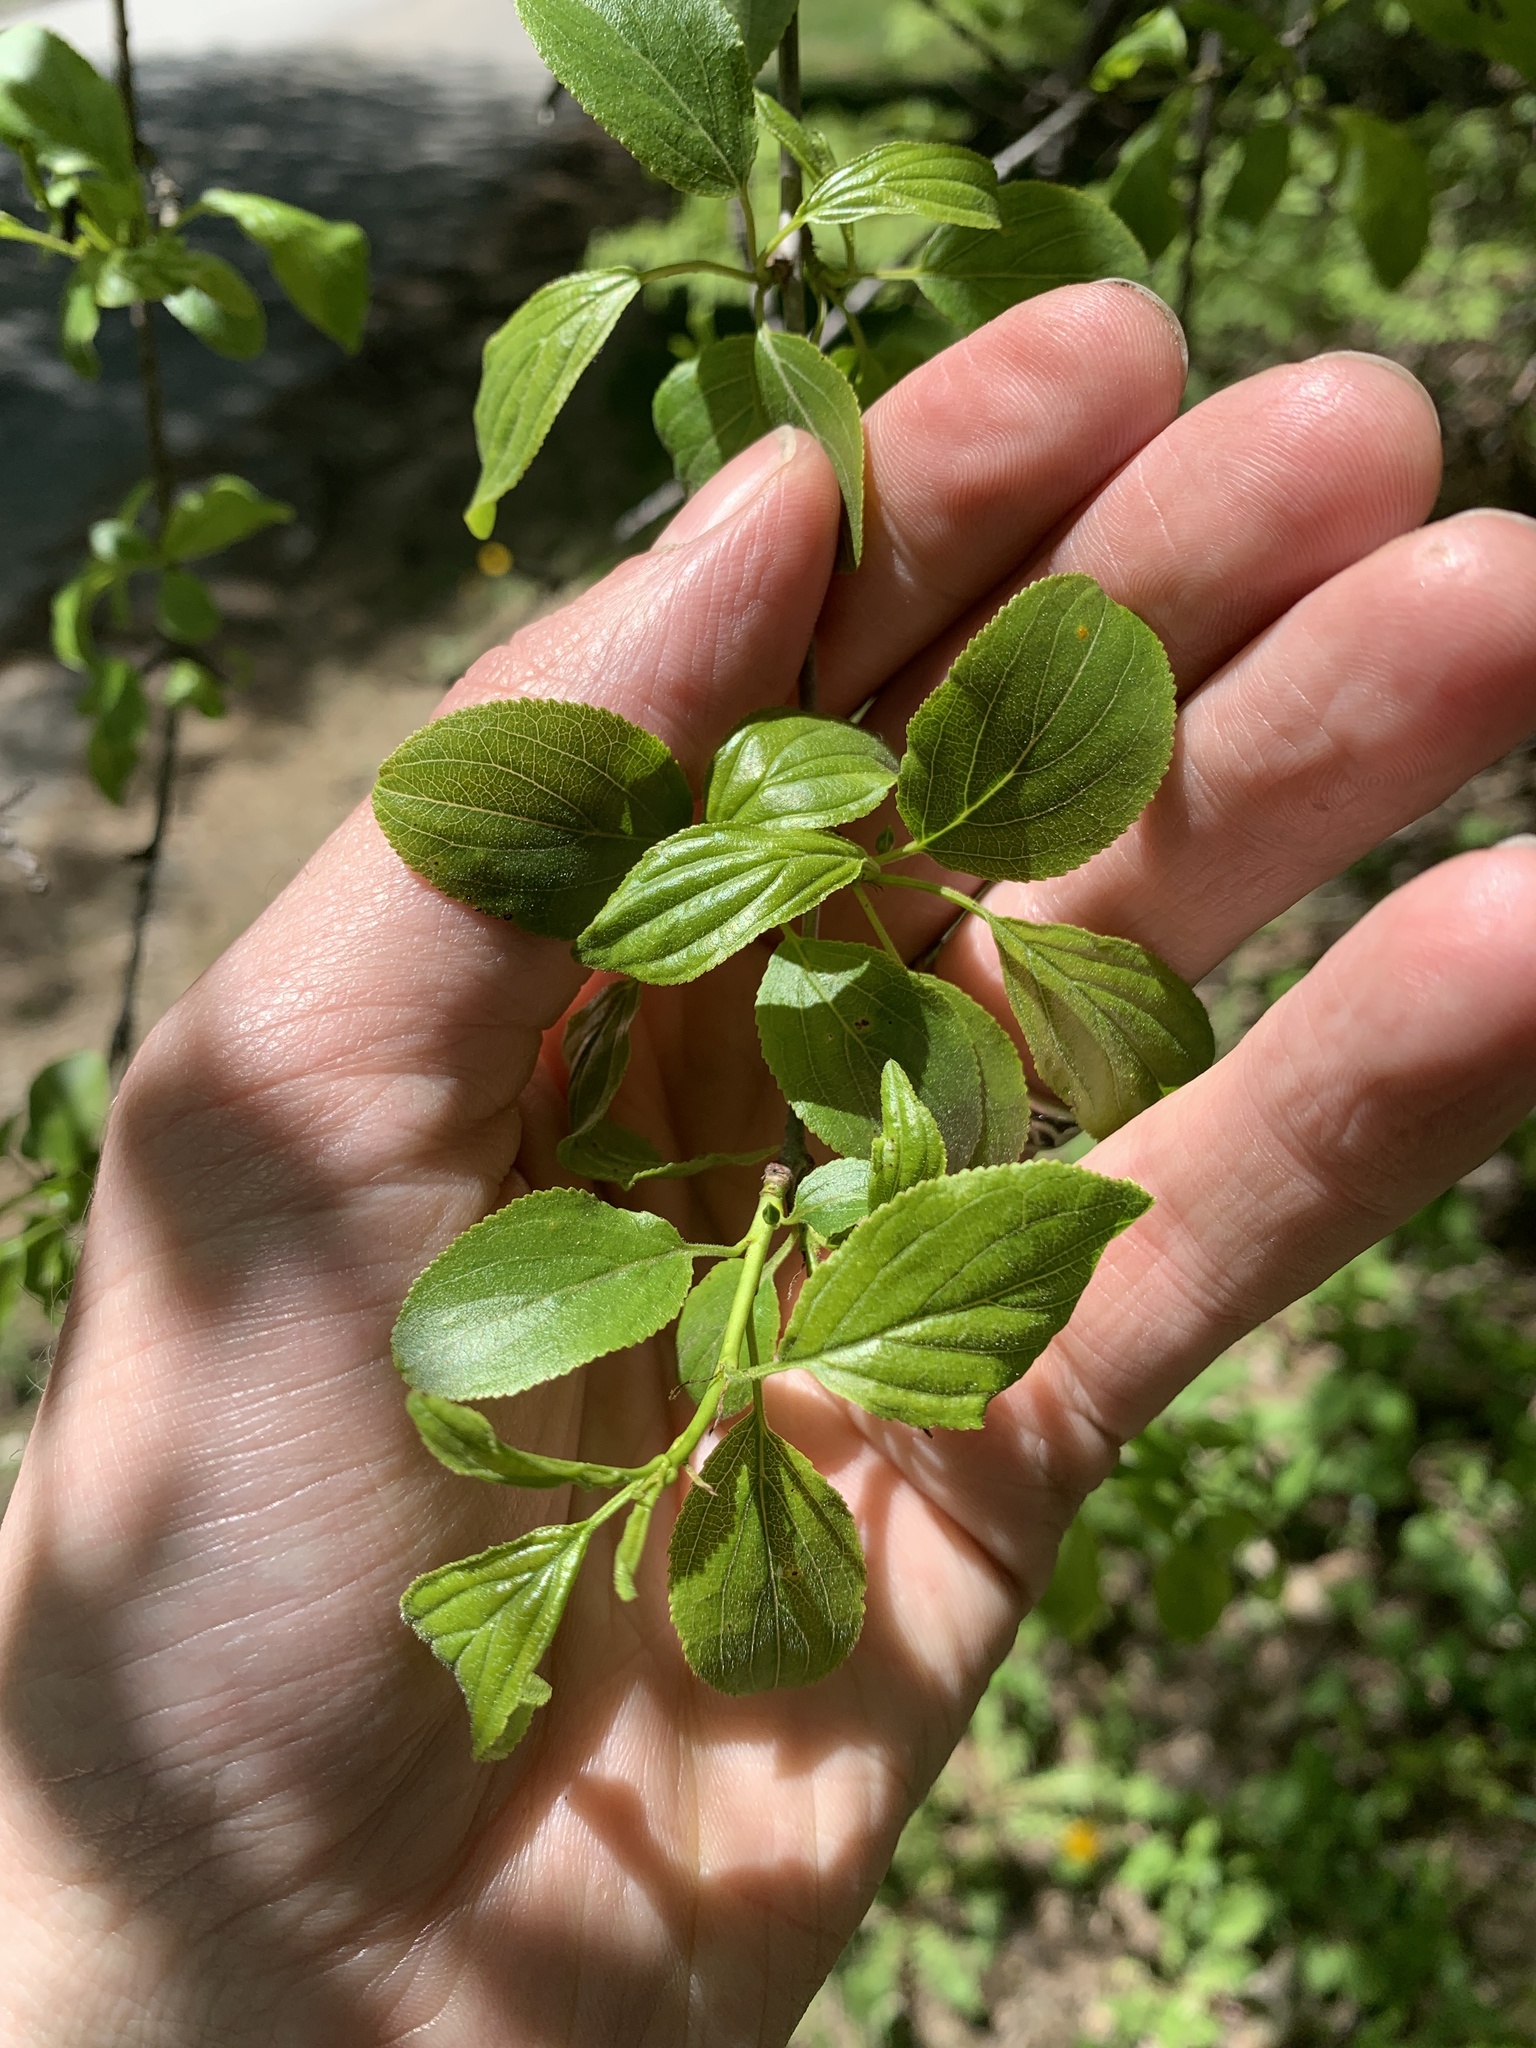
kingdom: Plantae
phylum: Tracheophyta
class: Magnoliopsida
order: Rosales
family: Rhamnaceae
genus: Rhamnus
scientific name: Rhamnus cathartica
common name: Common buckthorn
